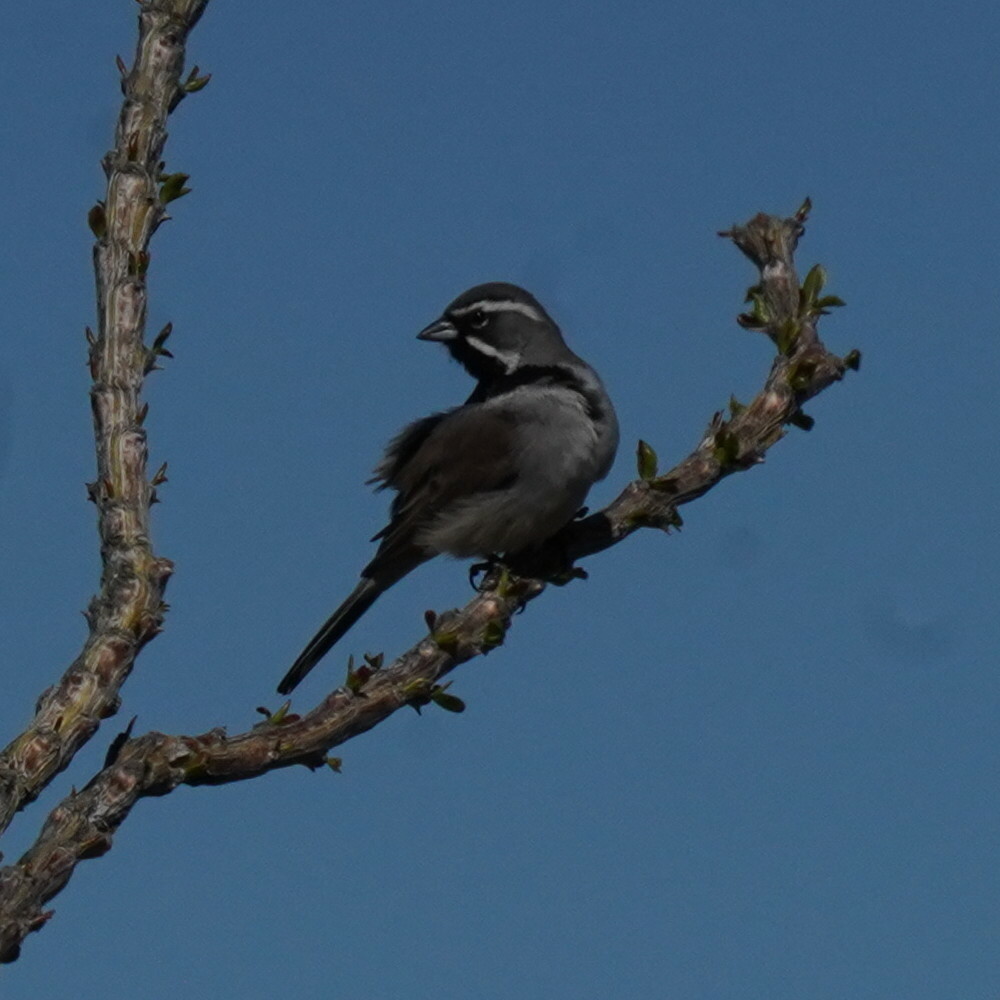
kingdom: Animalia
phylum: Chordata
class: Aves
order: Passeriformes
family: Passerellidae
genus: Amphispiza
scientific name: Amphispiza bilineata
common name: Black-throated sparrow
